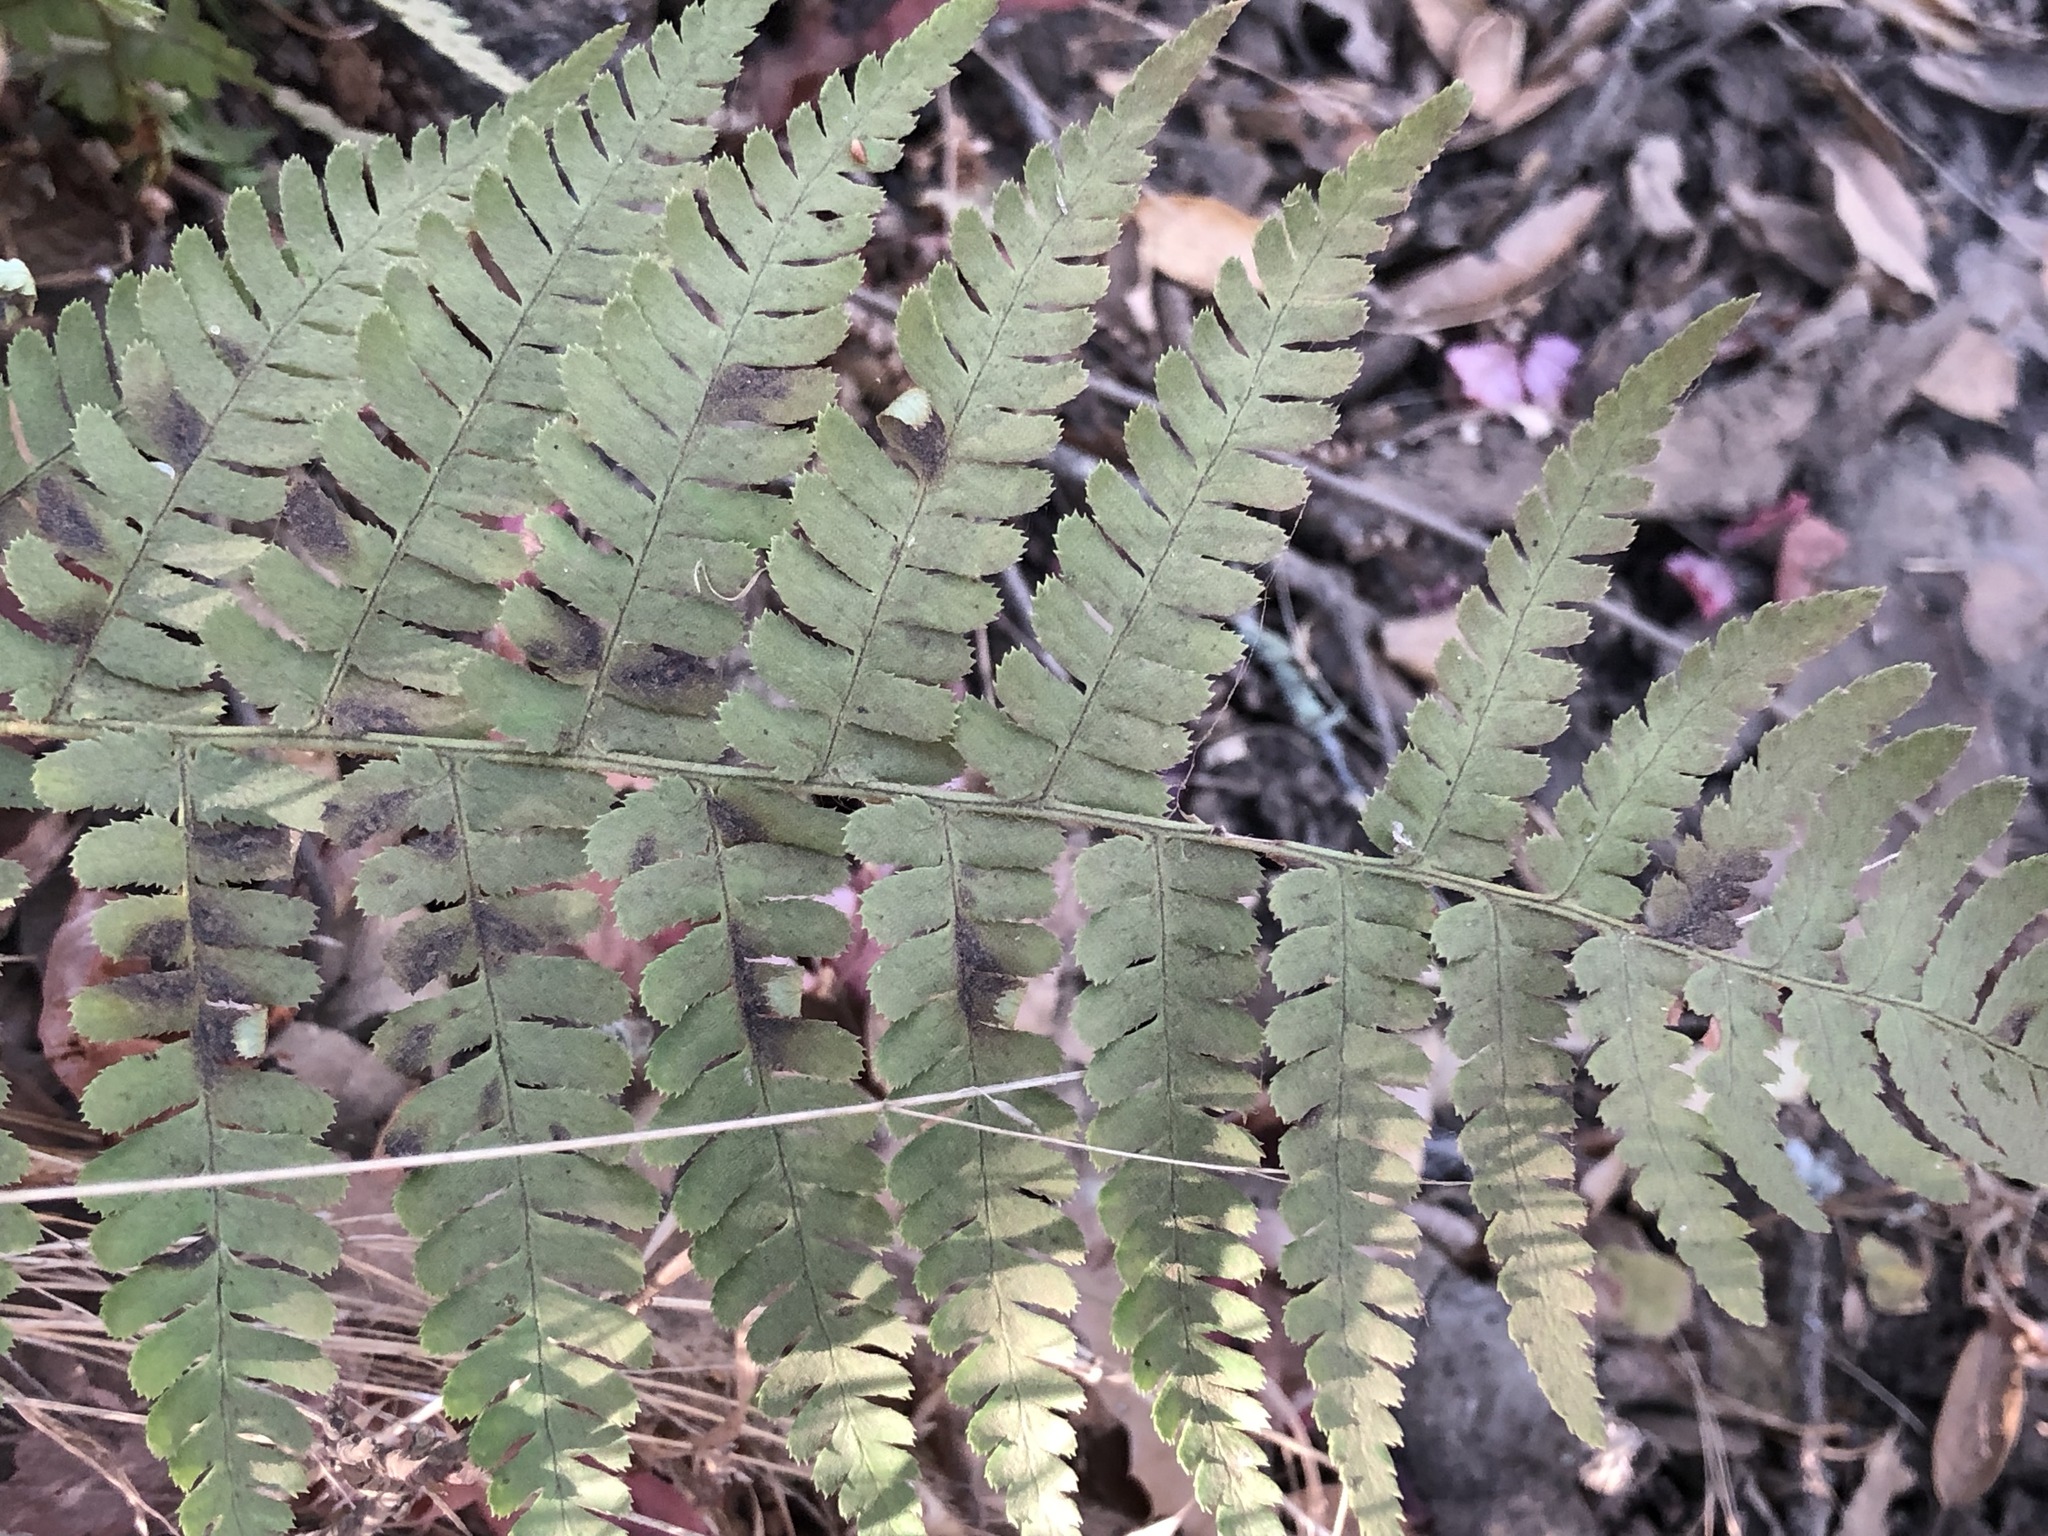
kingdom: Plantae
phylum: Tracheophyta
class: Polypodiopsida
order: Polypodiales
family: Dryopteridaceae
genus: Dryopteris
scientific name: Dryopteris arguta
